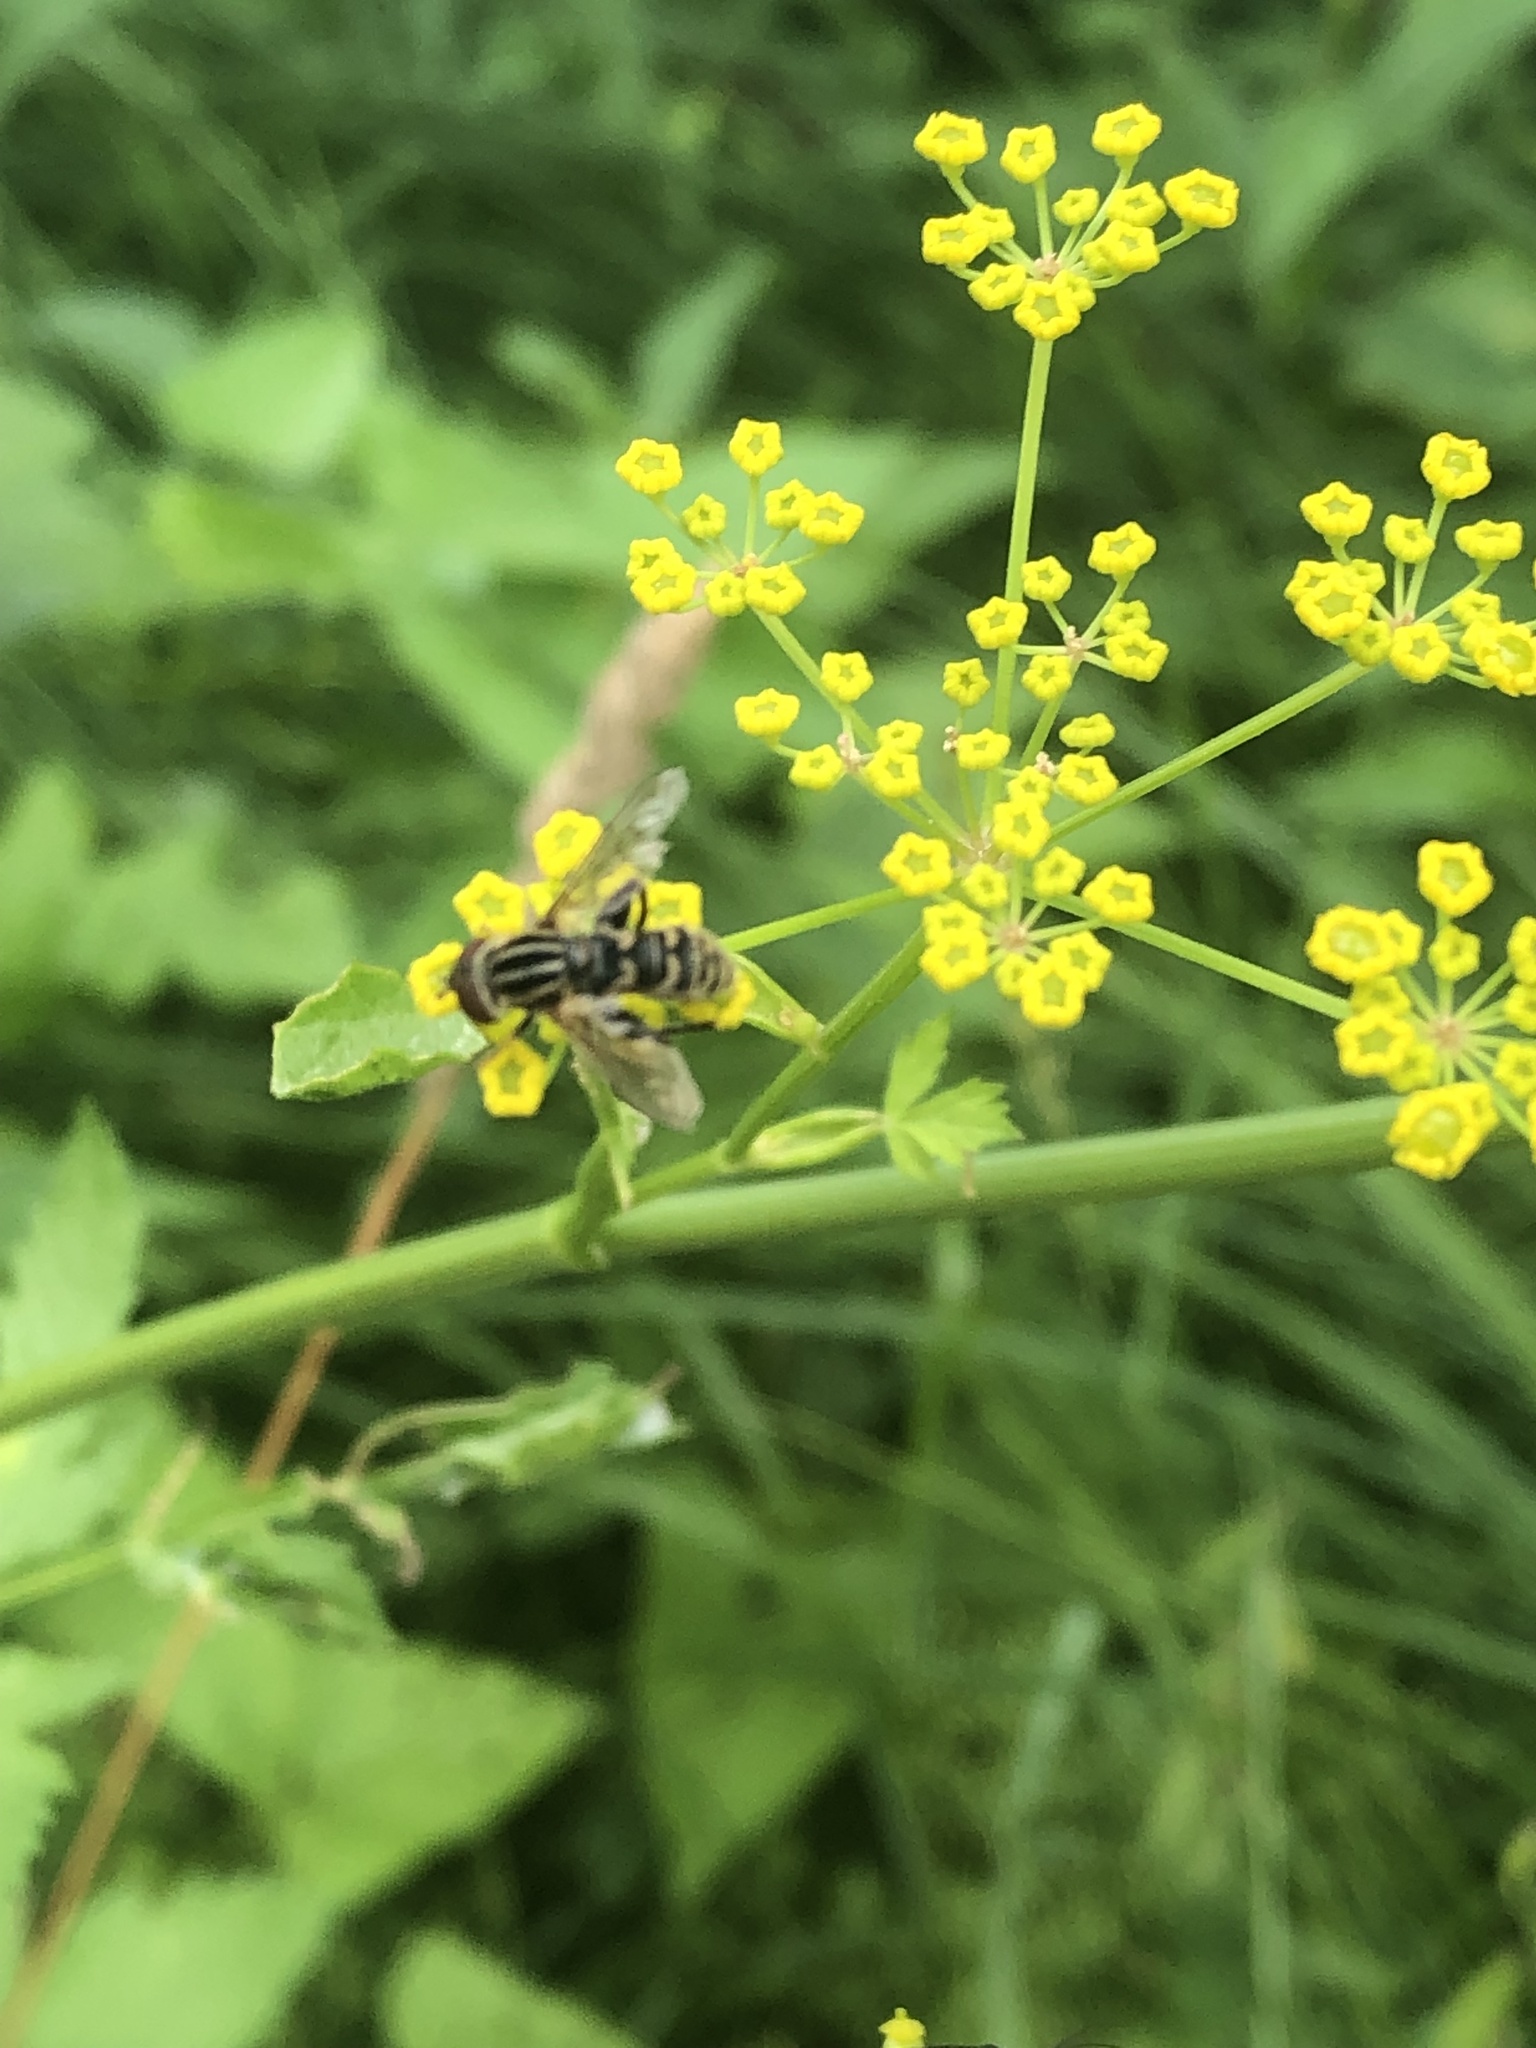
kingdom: Animalia
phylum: Arthropoda
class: Insecta
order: Diptera
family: Syrphidae
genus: Anasimyia
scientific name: Anasimyia chrysostomus
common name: Lump-legged swamp fly
